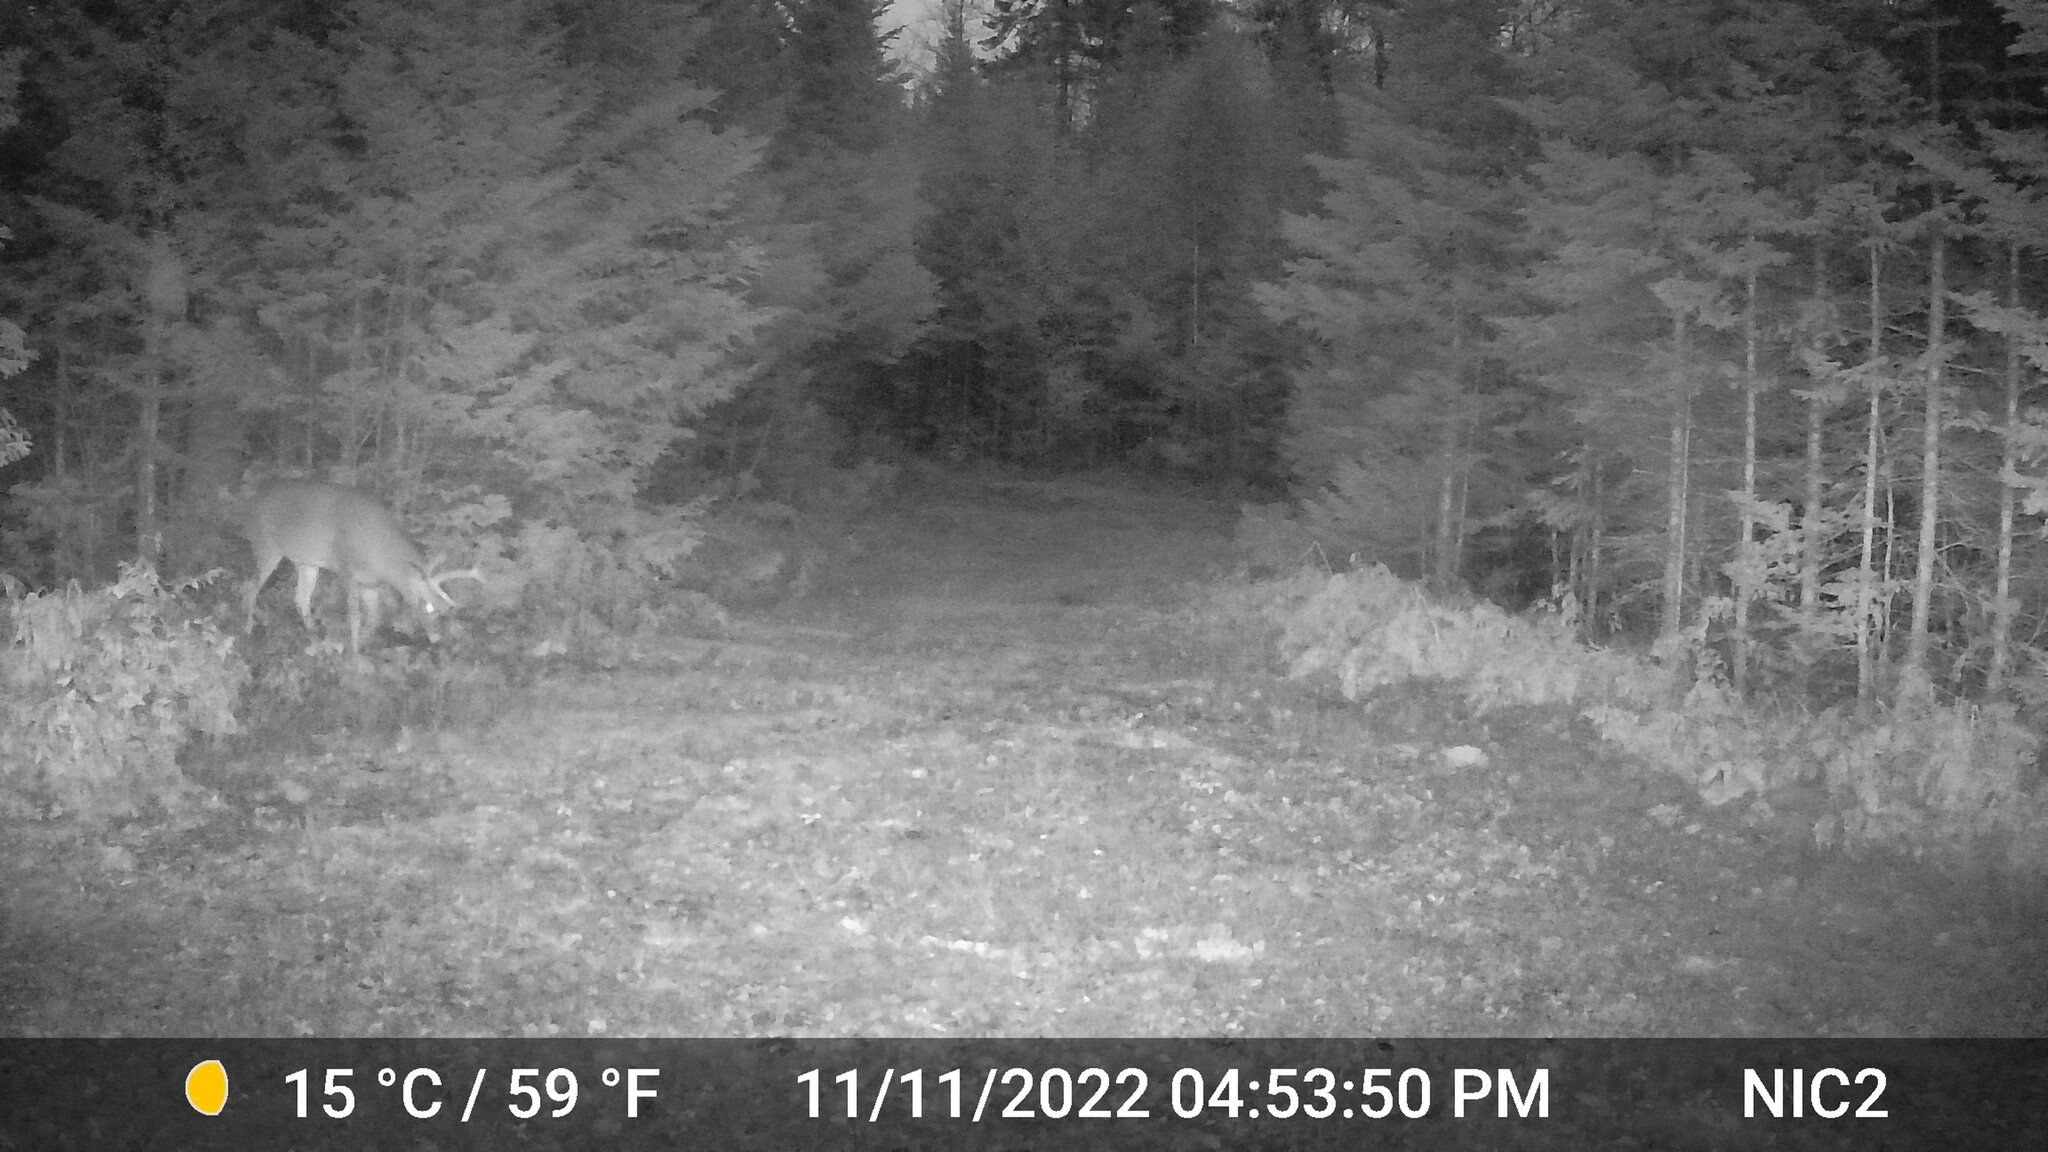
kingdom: Animalia
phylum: Chordata
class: Mammalia
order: Artiodactyla
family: Cervidae
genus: Odocoileus
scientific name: Odocoileus virginianus
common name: White-tailed deer
